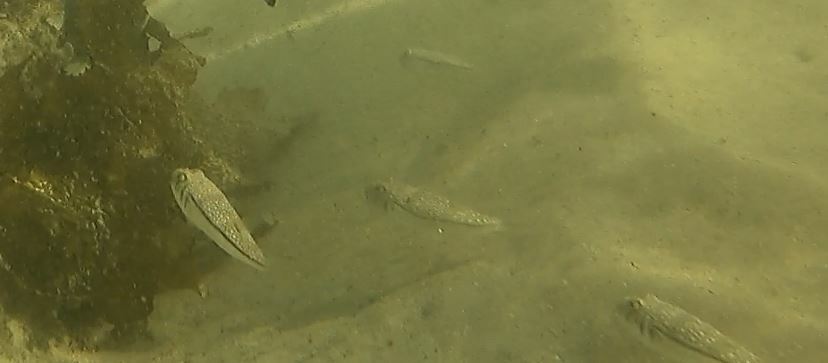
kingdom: Animalia
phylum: Chordata
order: Tetraodontiformes
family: Tetraodontidae
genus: Torquigener
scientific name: Torquigener pleurogramma
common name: Banded toadfish
